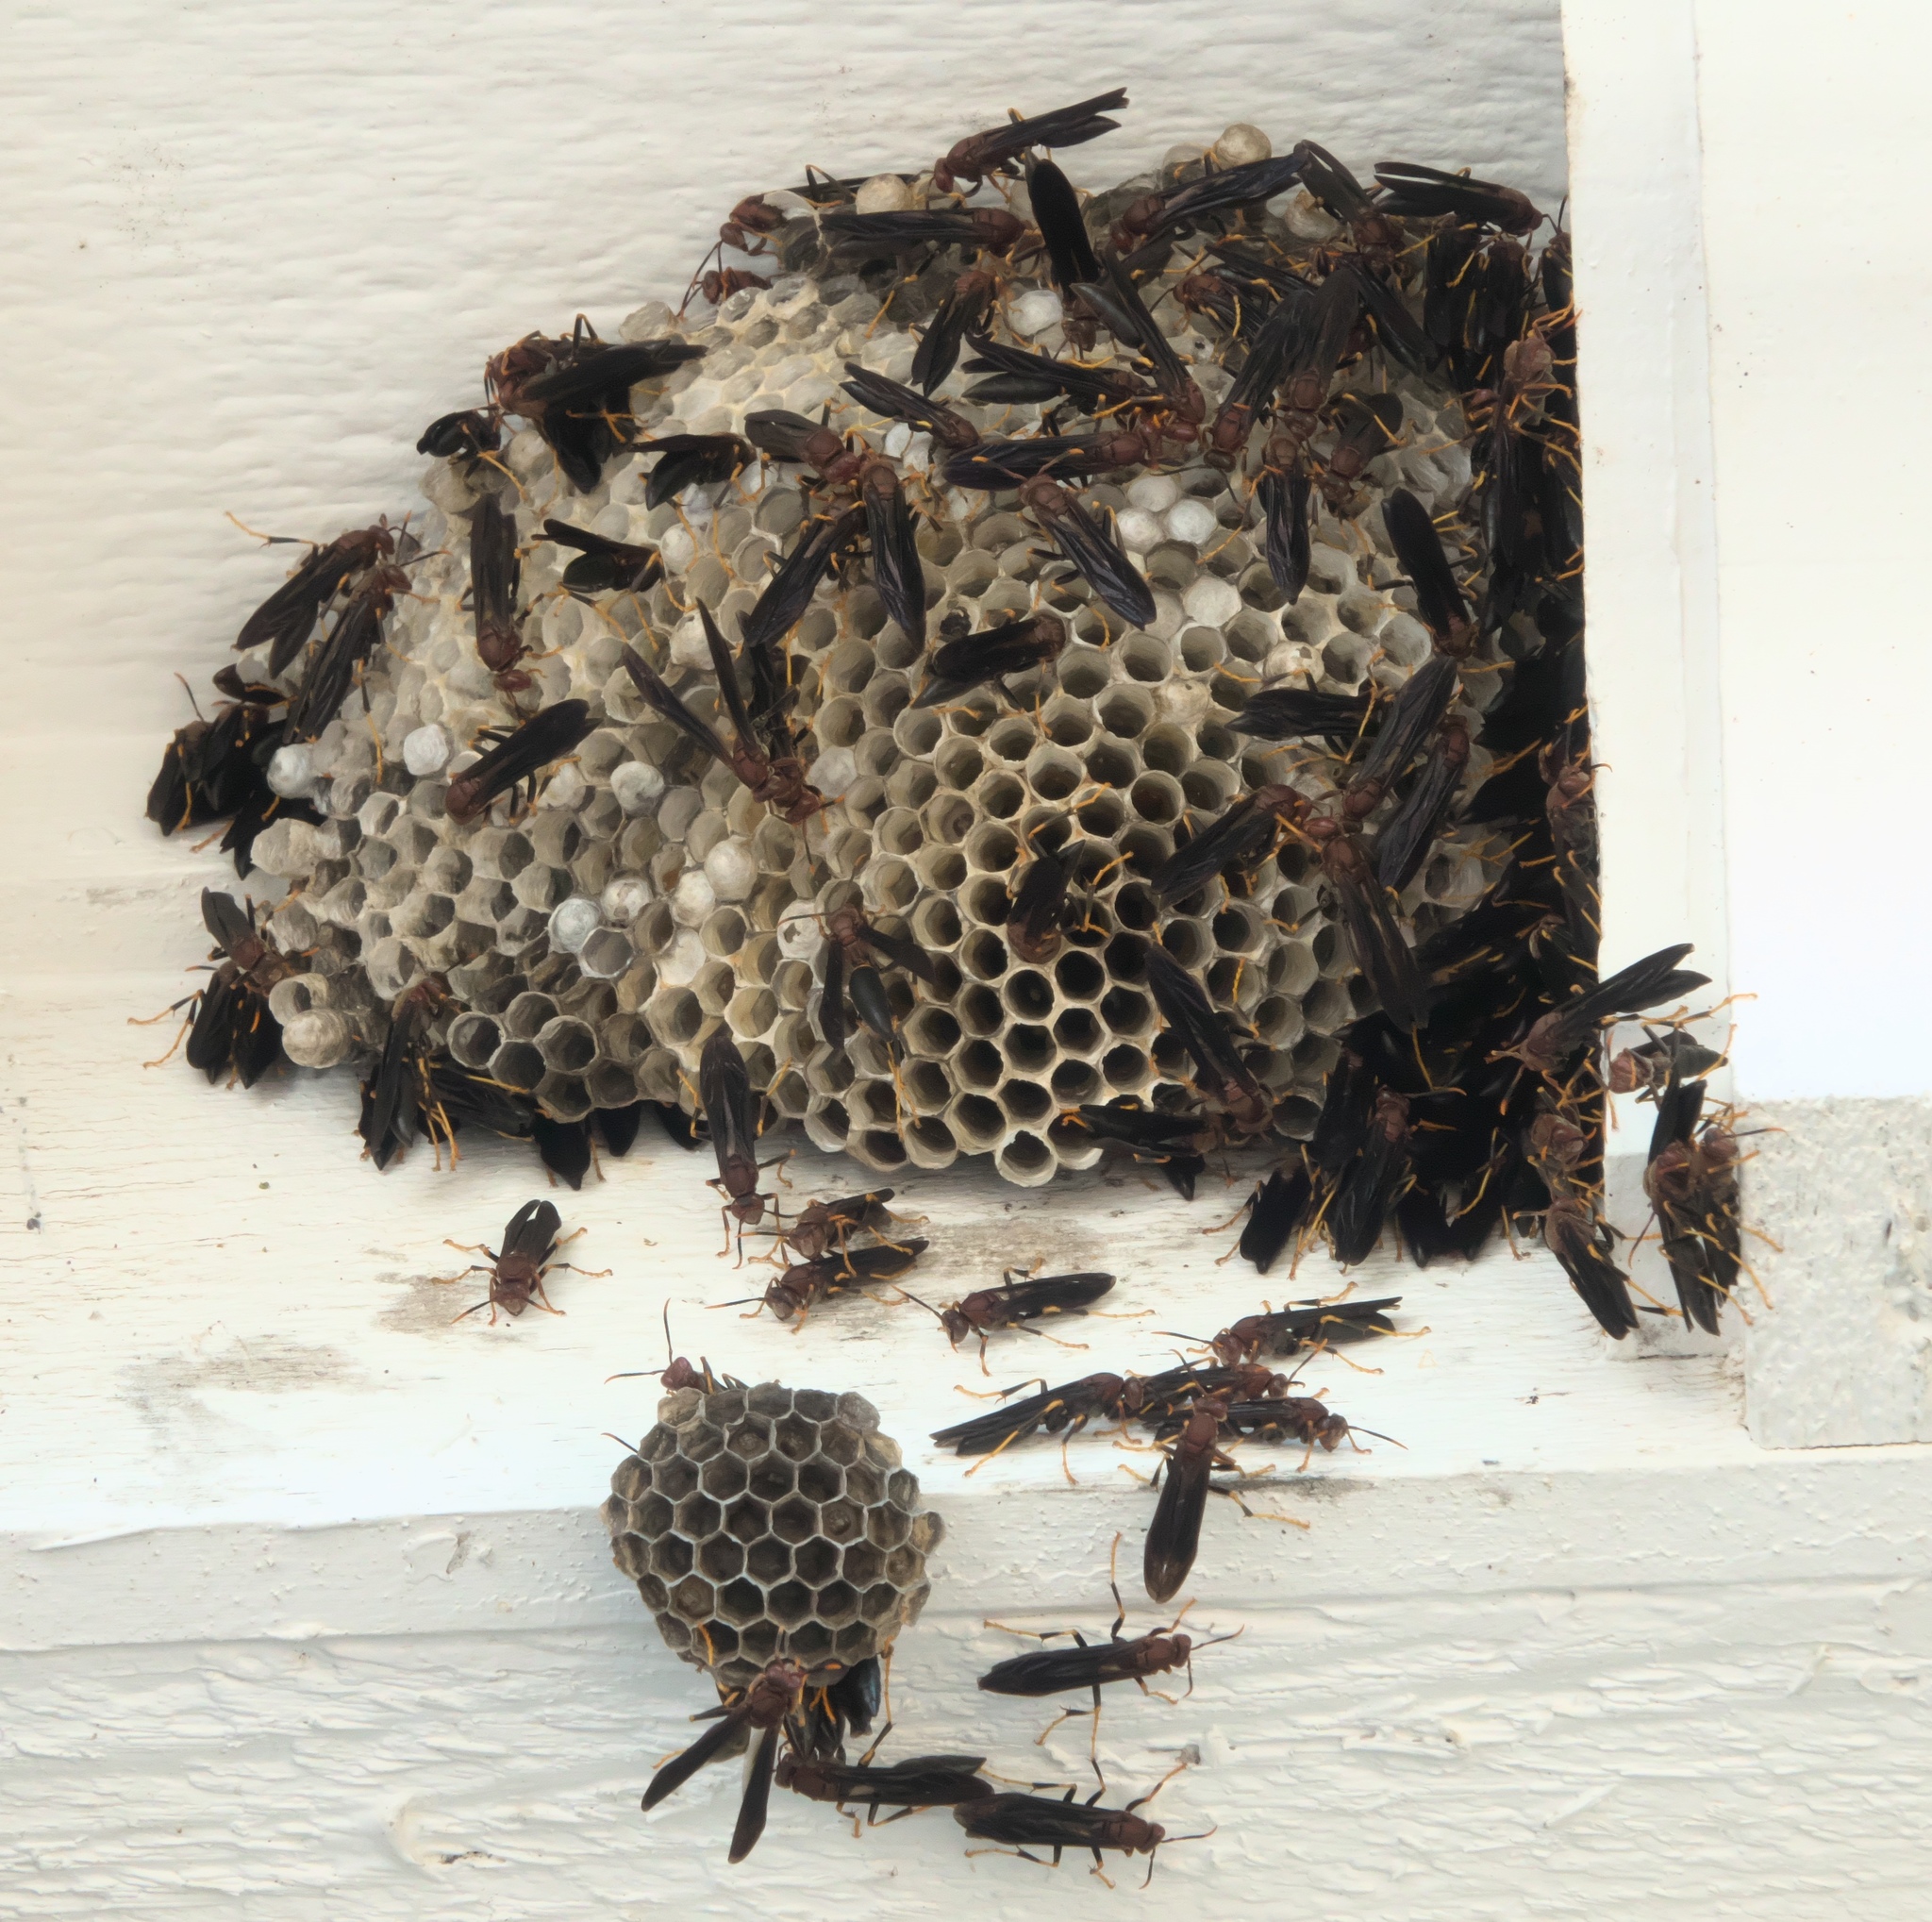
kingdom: Animalia
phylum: Arthropoda
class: Insecta
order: Hymenoptera
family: Eumenidae
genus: Polistes
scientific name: Polistes annularis
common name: Ringed paper wasp
